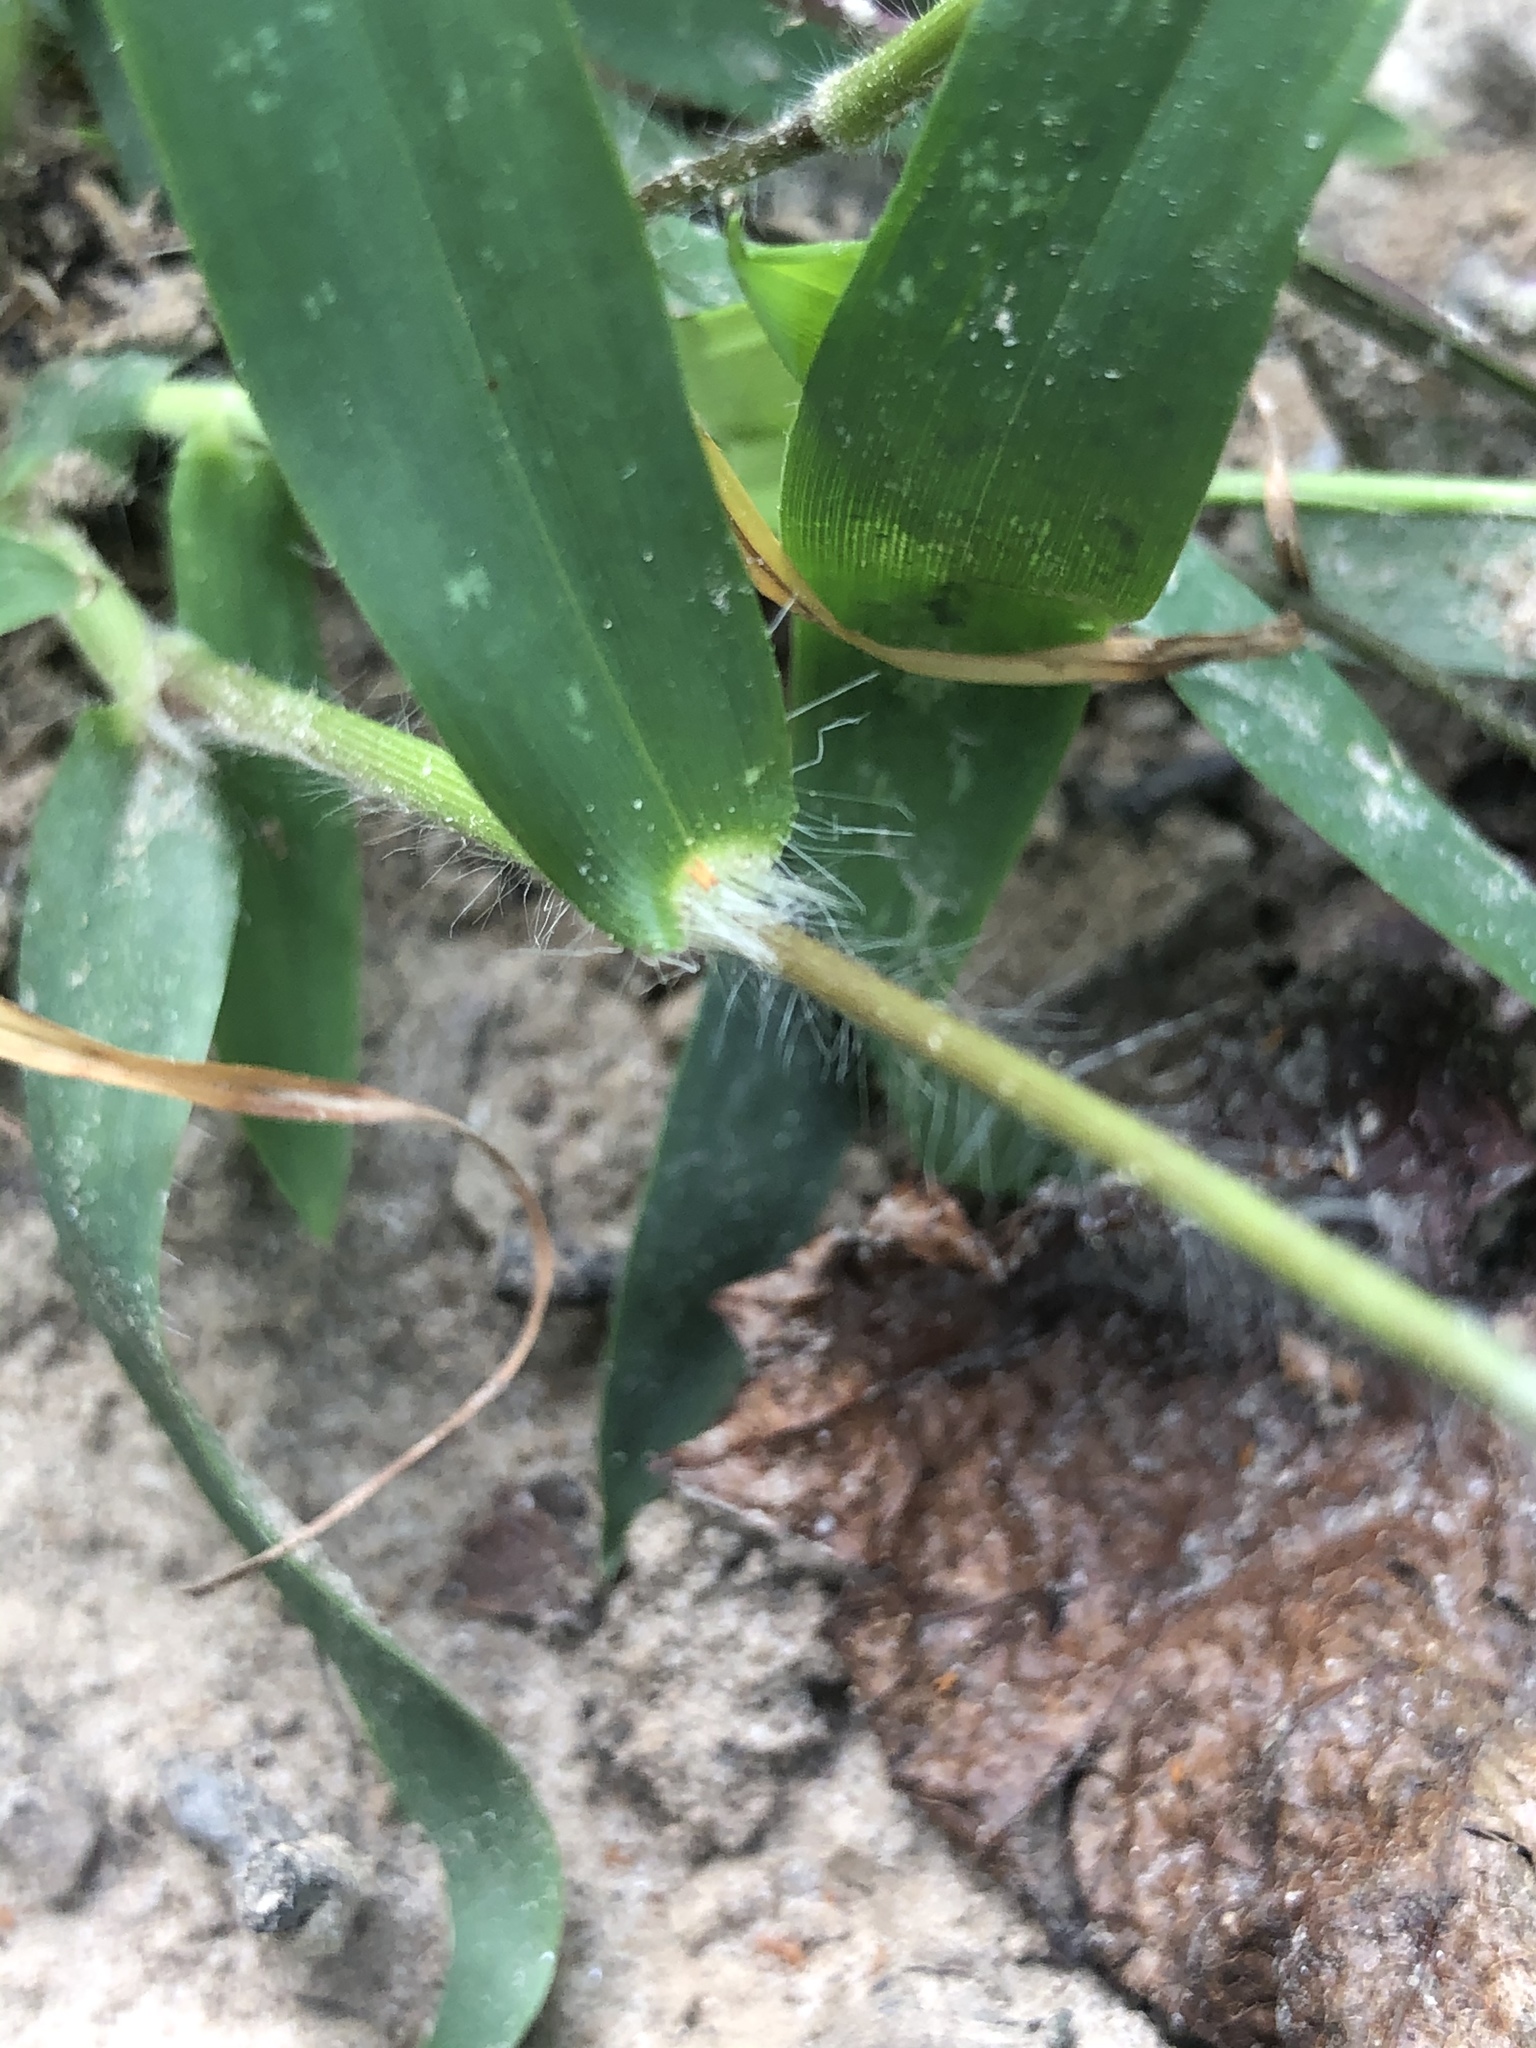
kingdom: Plantae
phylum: Tracheophyta
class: Liliopsida
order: Poales
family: Poaceae
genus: Dichanthelium
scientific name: Dichanthelium lindheimeri
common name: Lindheimer's panicgrass
